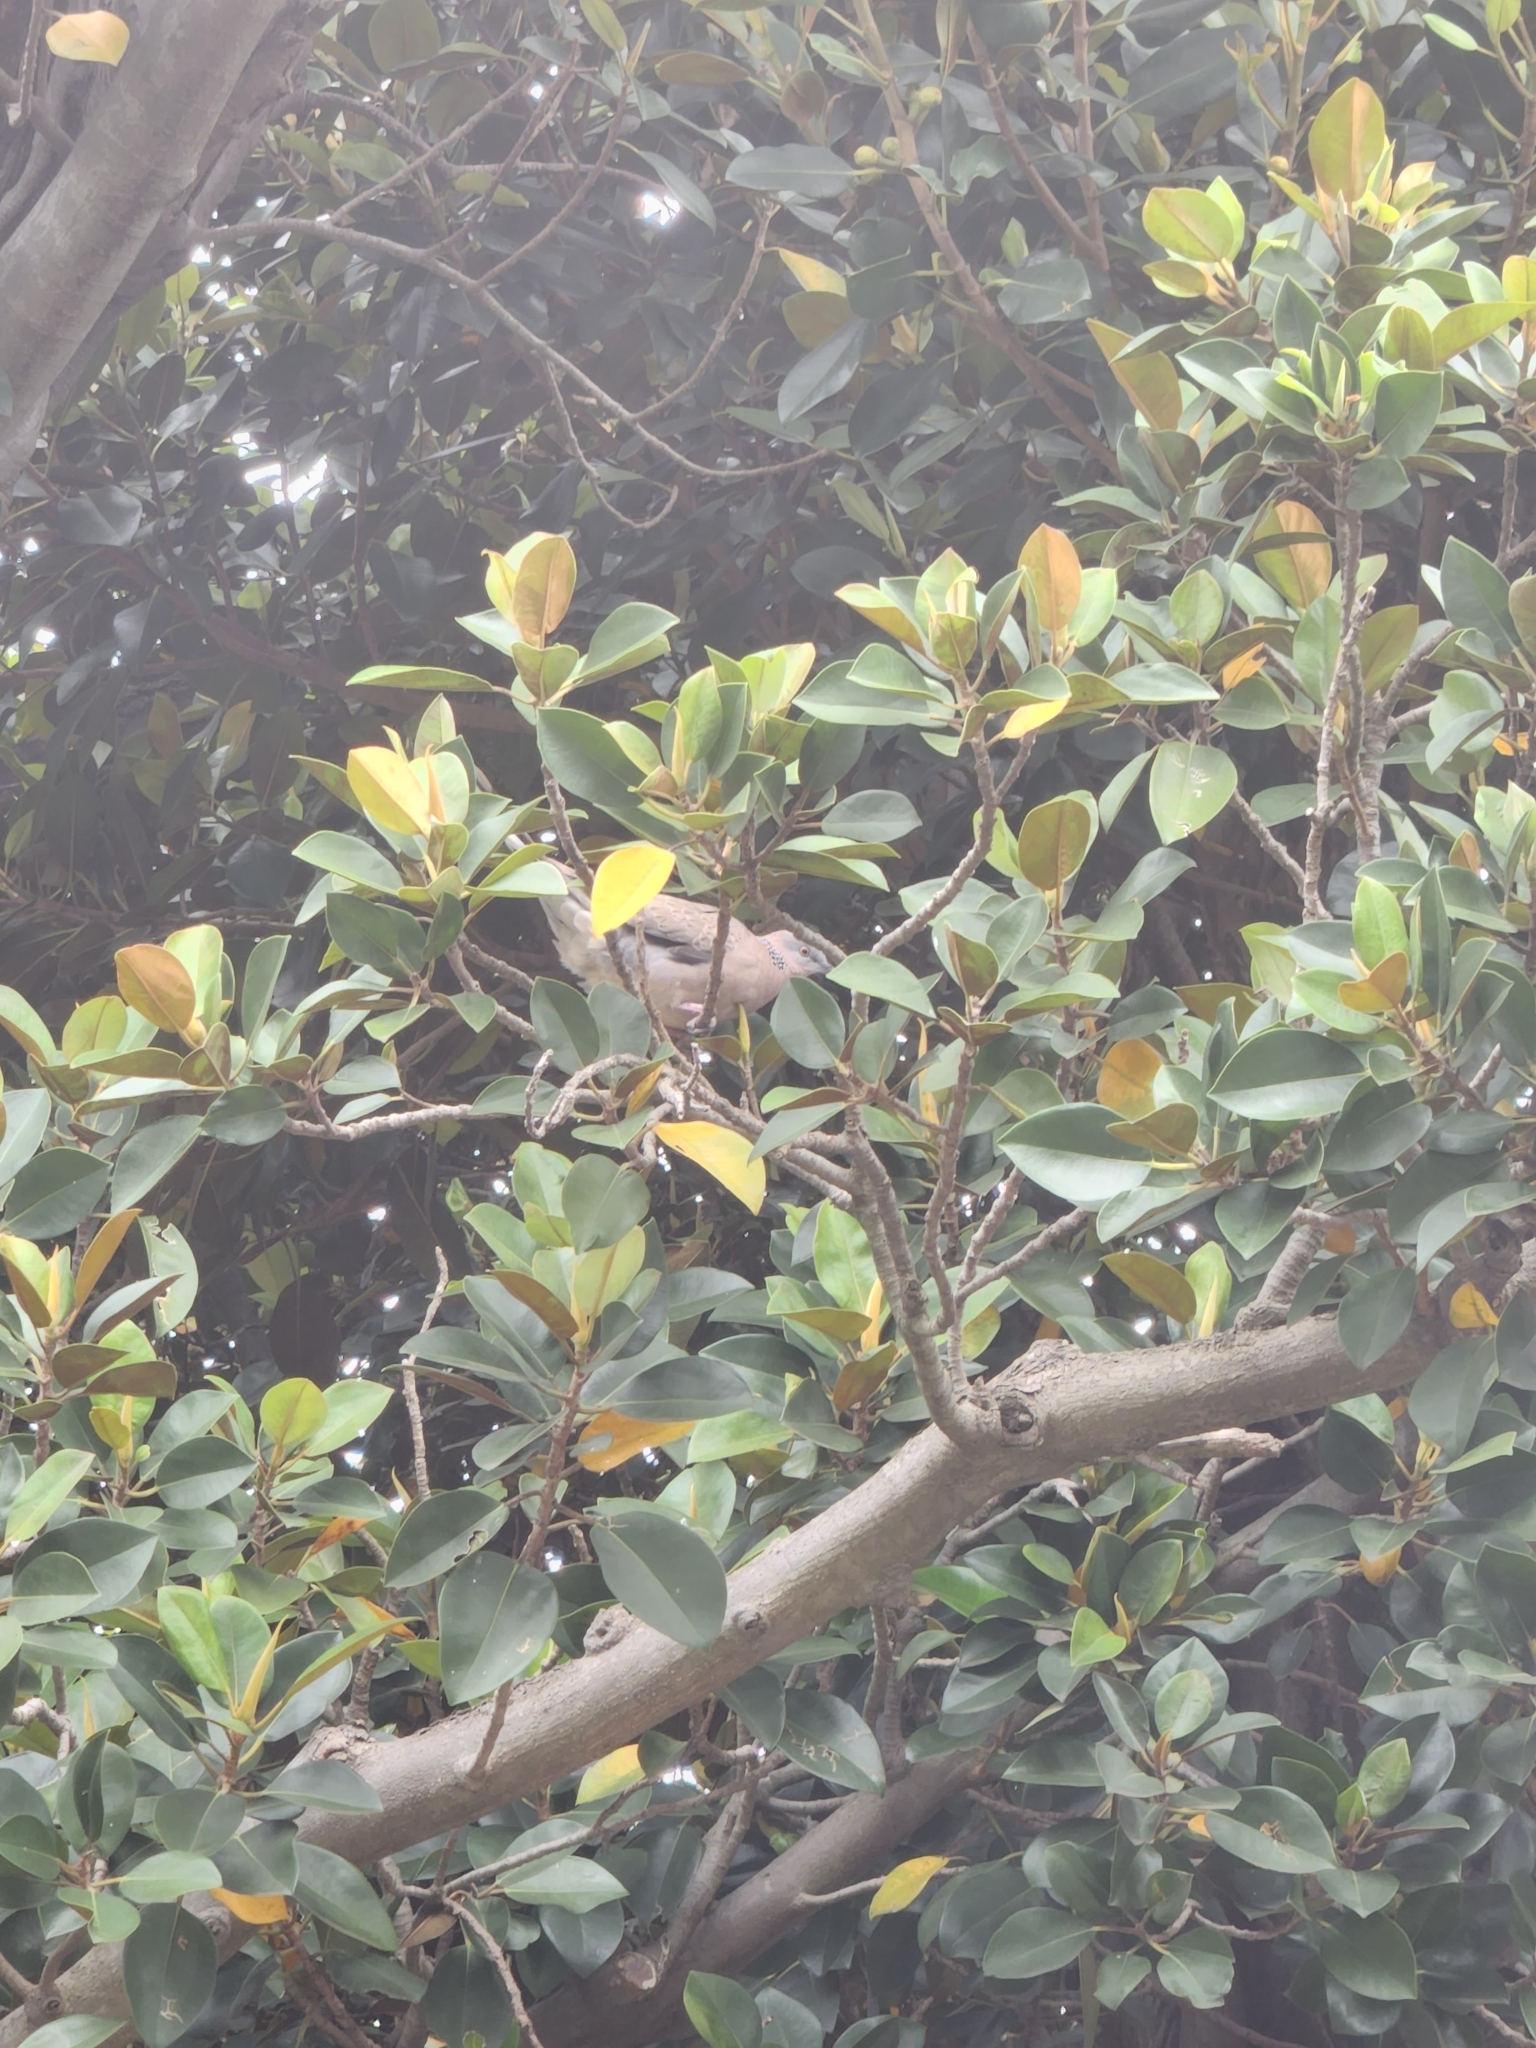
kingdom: Animalia
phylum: Chordata
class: Aves
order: Columbiformes
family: Columbidae
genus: Spilopelia
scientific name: Spilopelia chinensis
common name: Spotted dove
